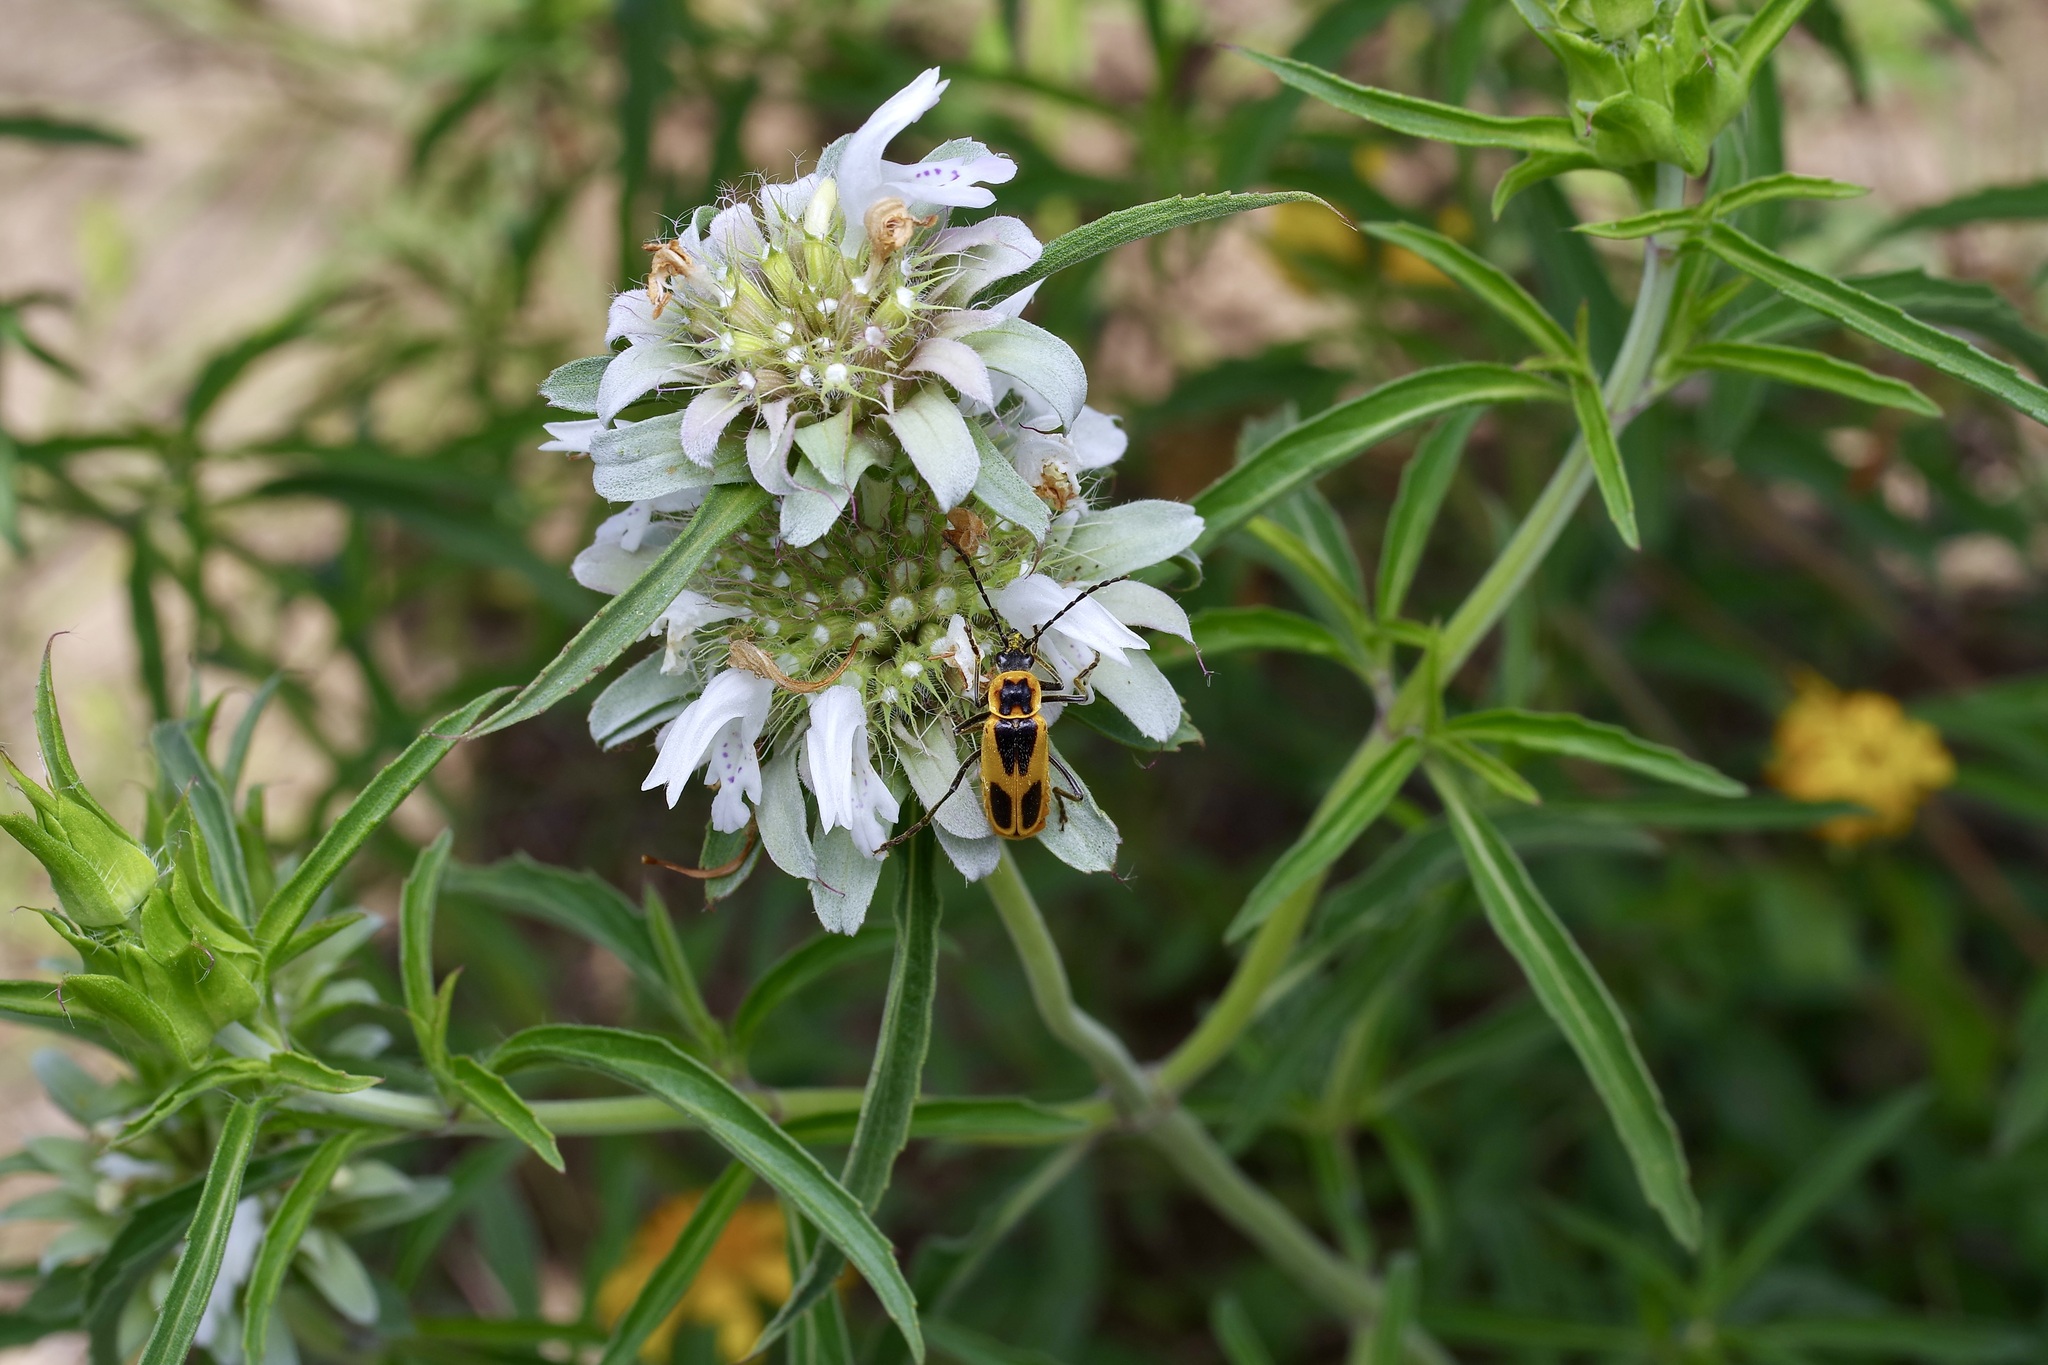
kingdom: Animalia
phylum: Arthropoda
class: Insecta
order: Coleoptera
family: Cantharidae
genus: Chauliognathus
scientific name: Chauliognathus scutellaris
